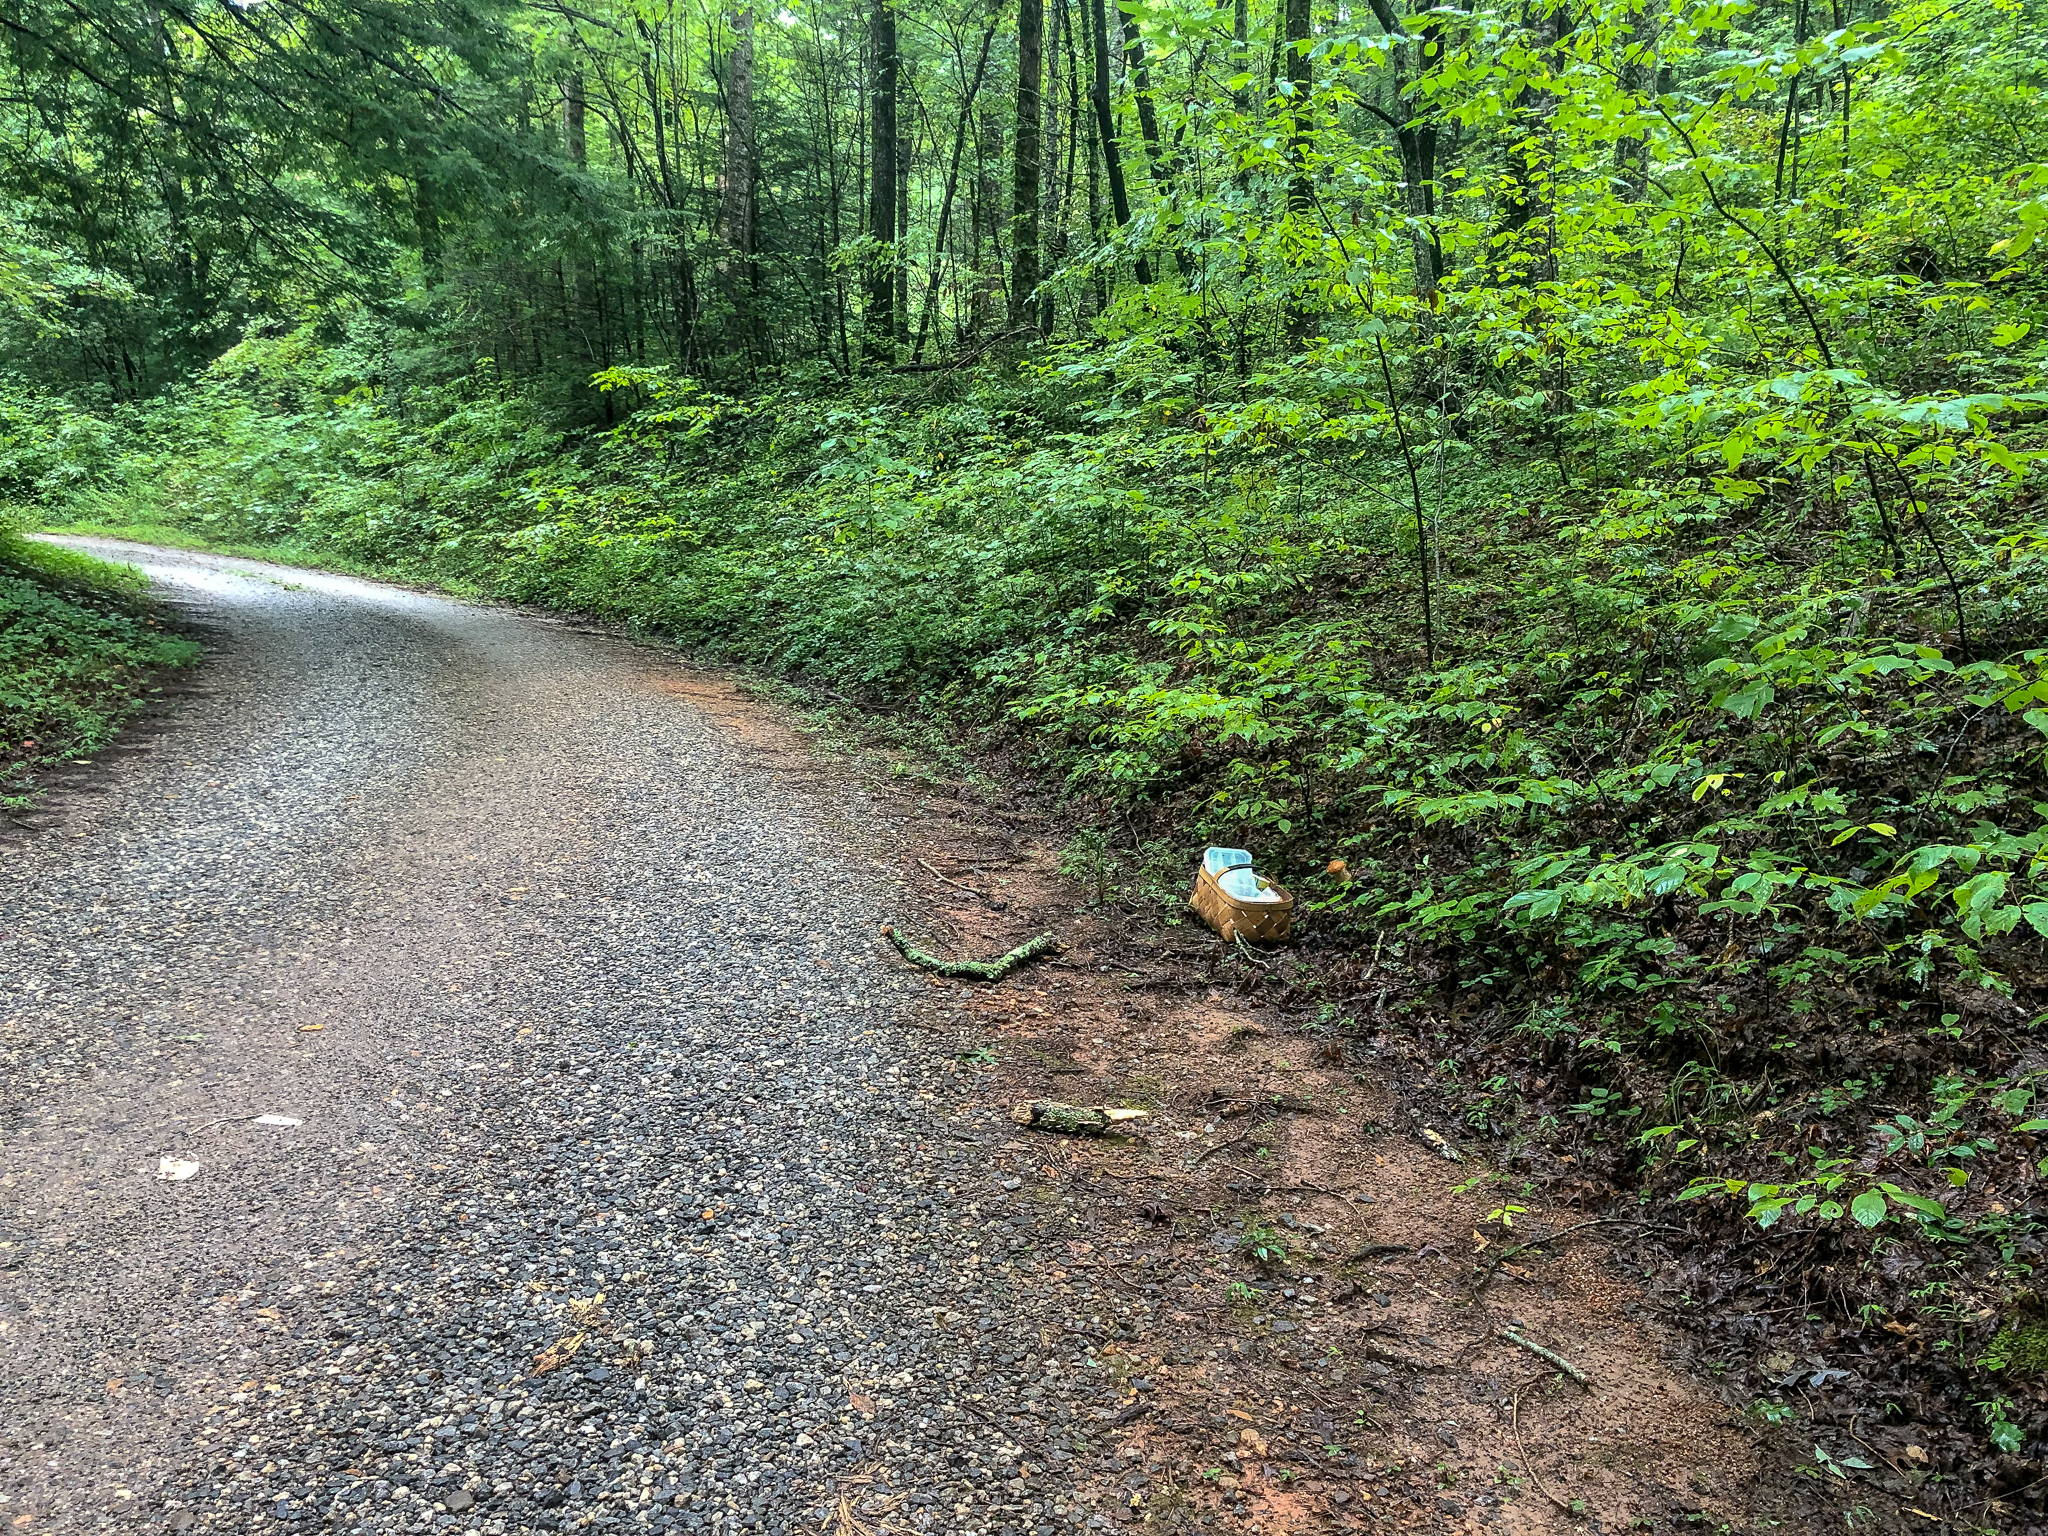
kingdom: Fungi
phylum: Basidiomycota
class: Agaricomycetes
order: Boletales
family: Boletaceae
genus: Boletus
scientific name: Boletus nobilissimus
